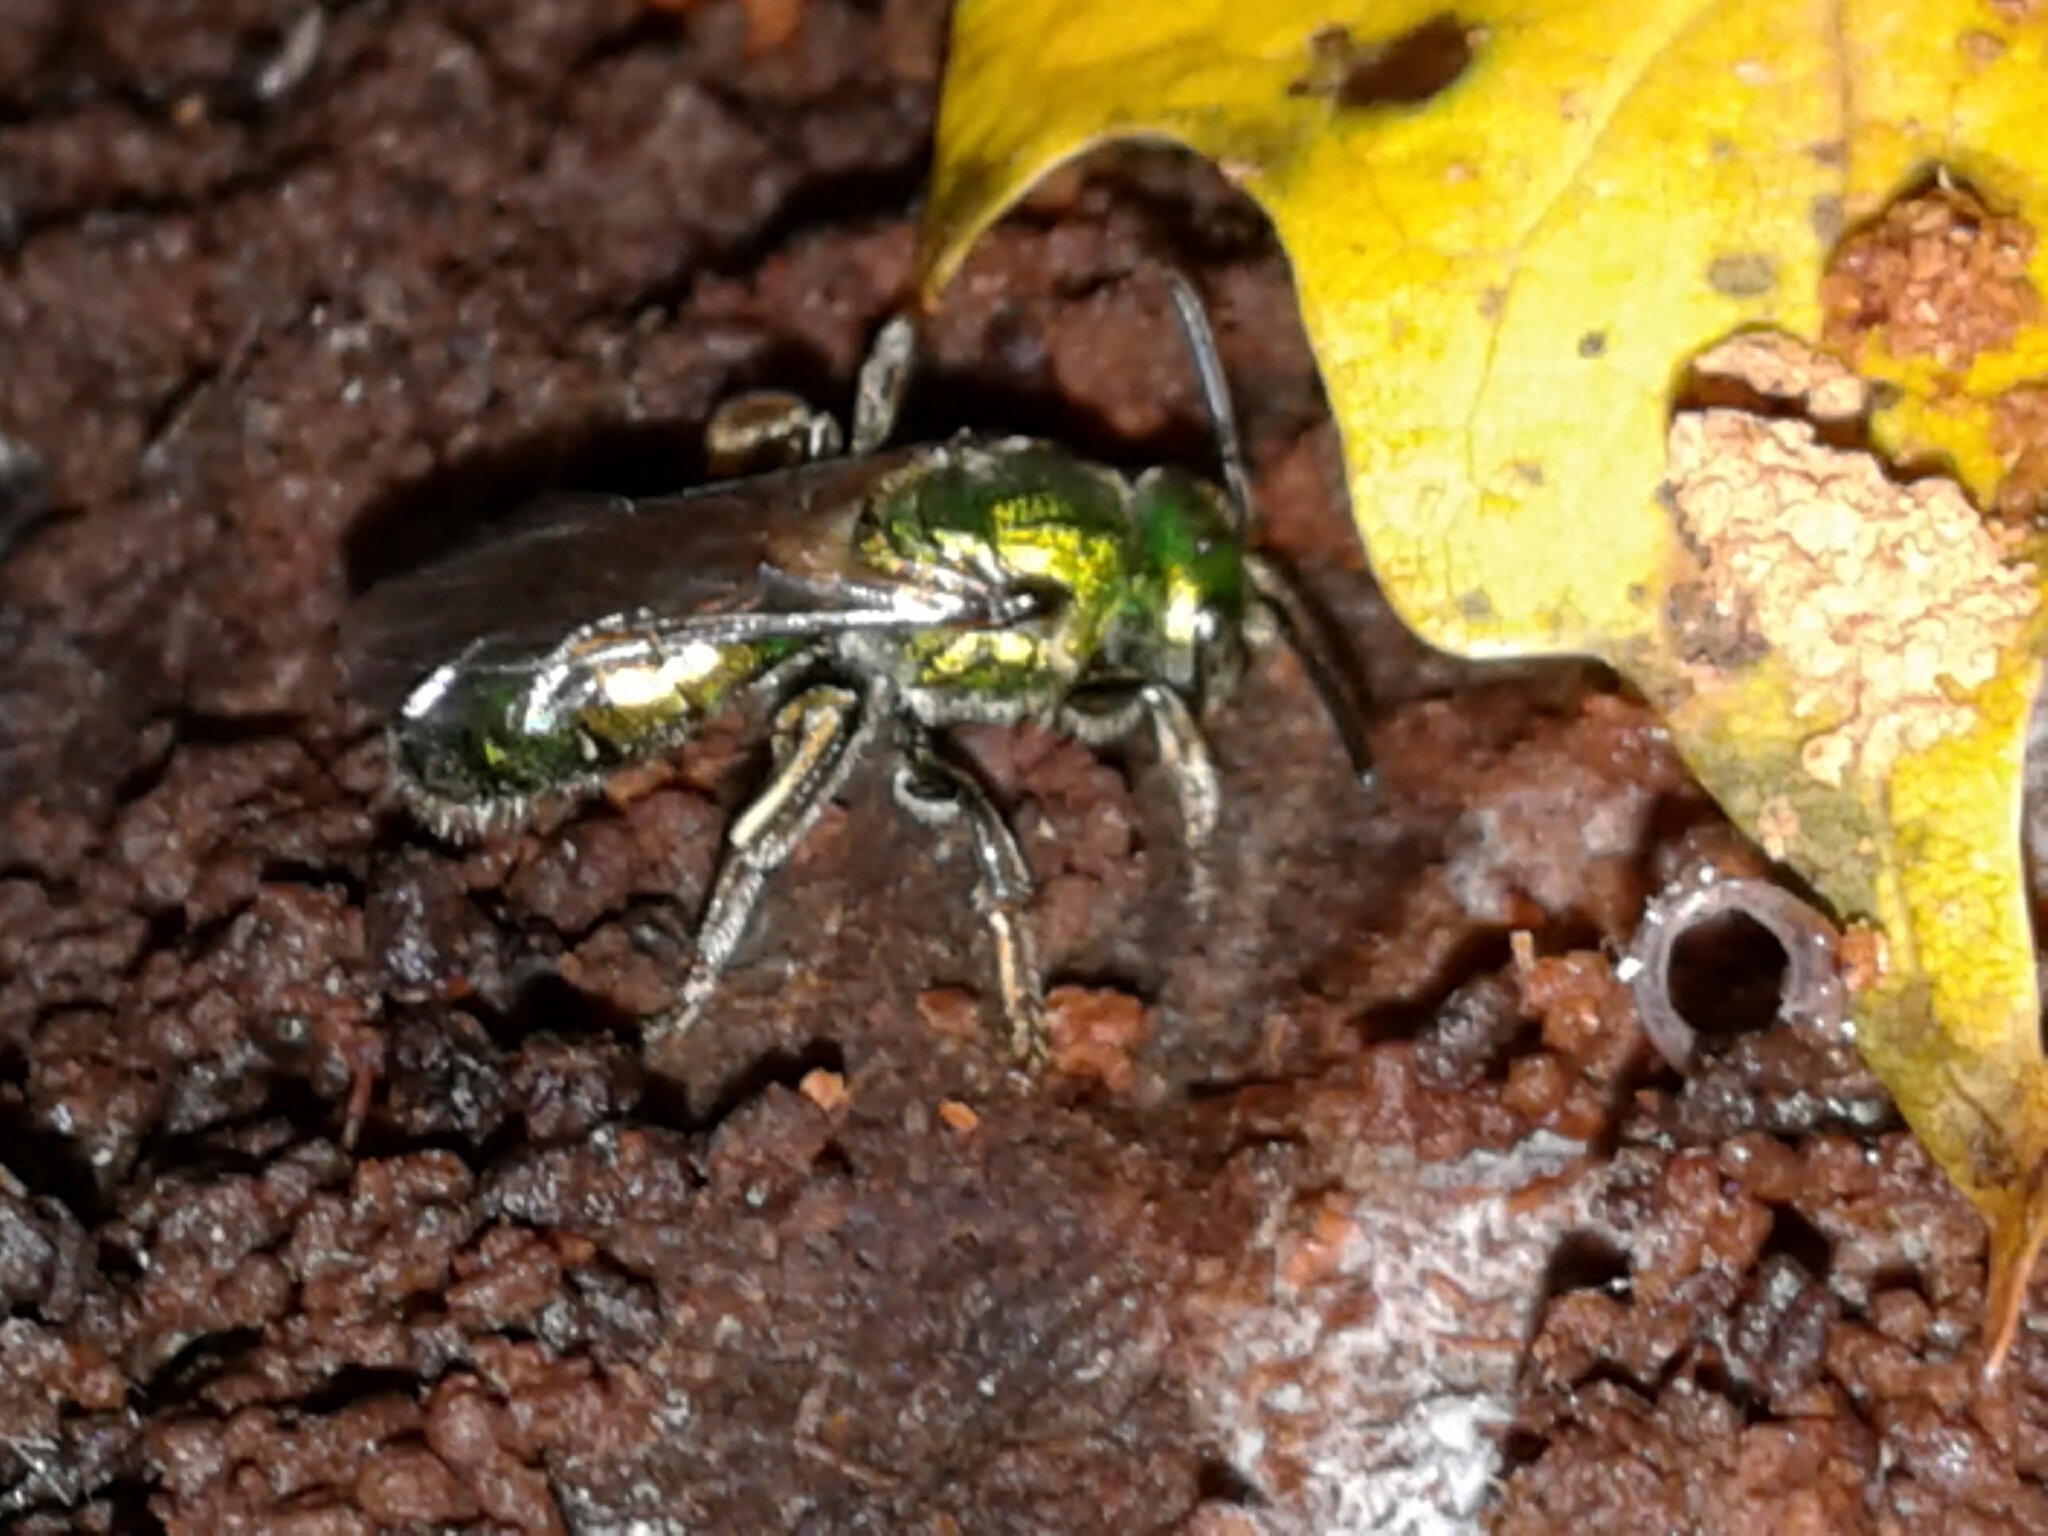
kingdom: Animalia
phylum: Arthropoda
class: Insecta
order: Hymenoptera
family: Halictidae
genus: Augochlora
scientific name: Augochlora pura
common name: Pure green sweat bee
